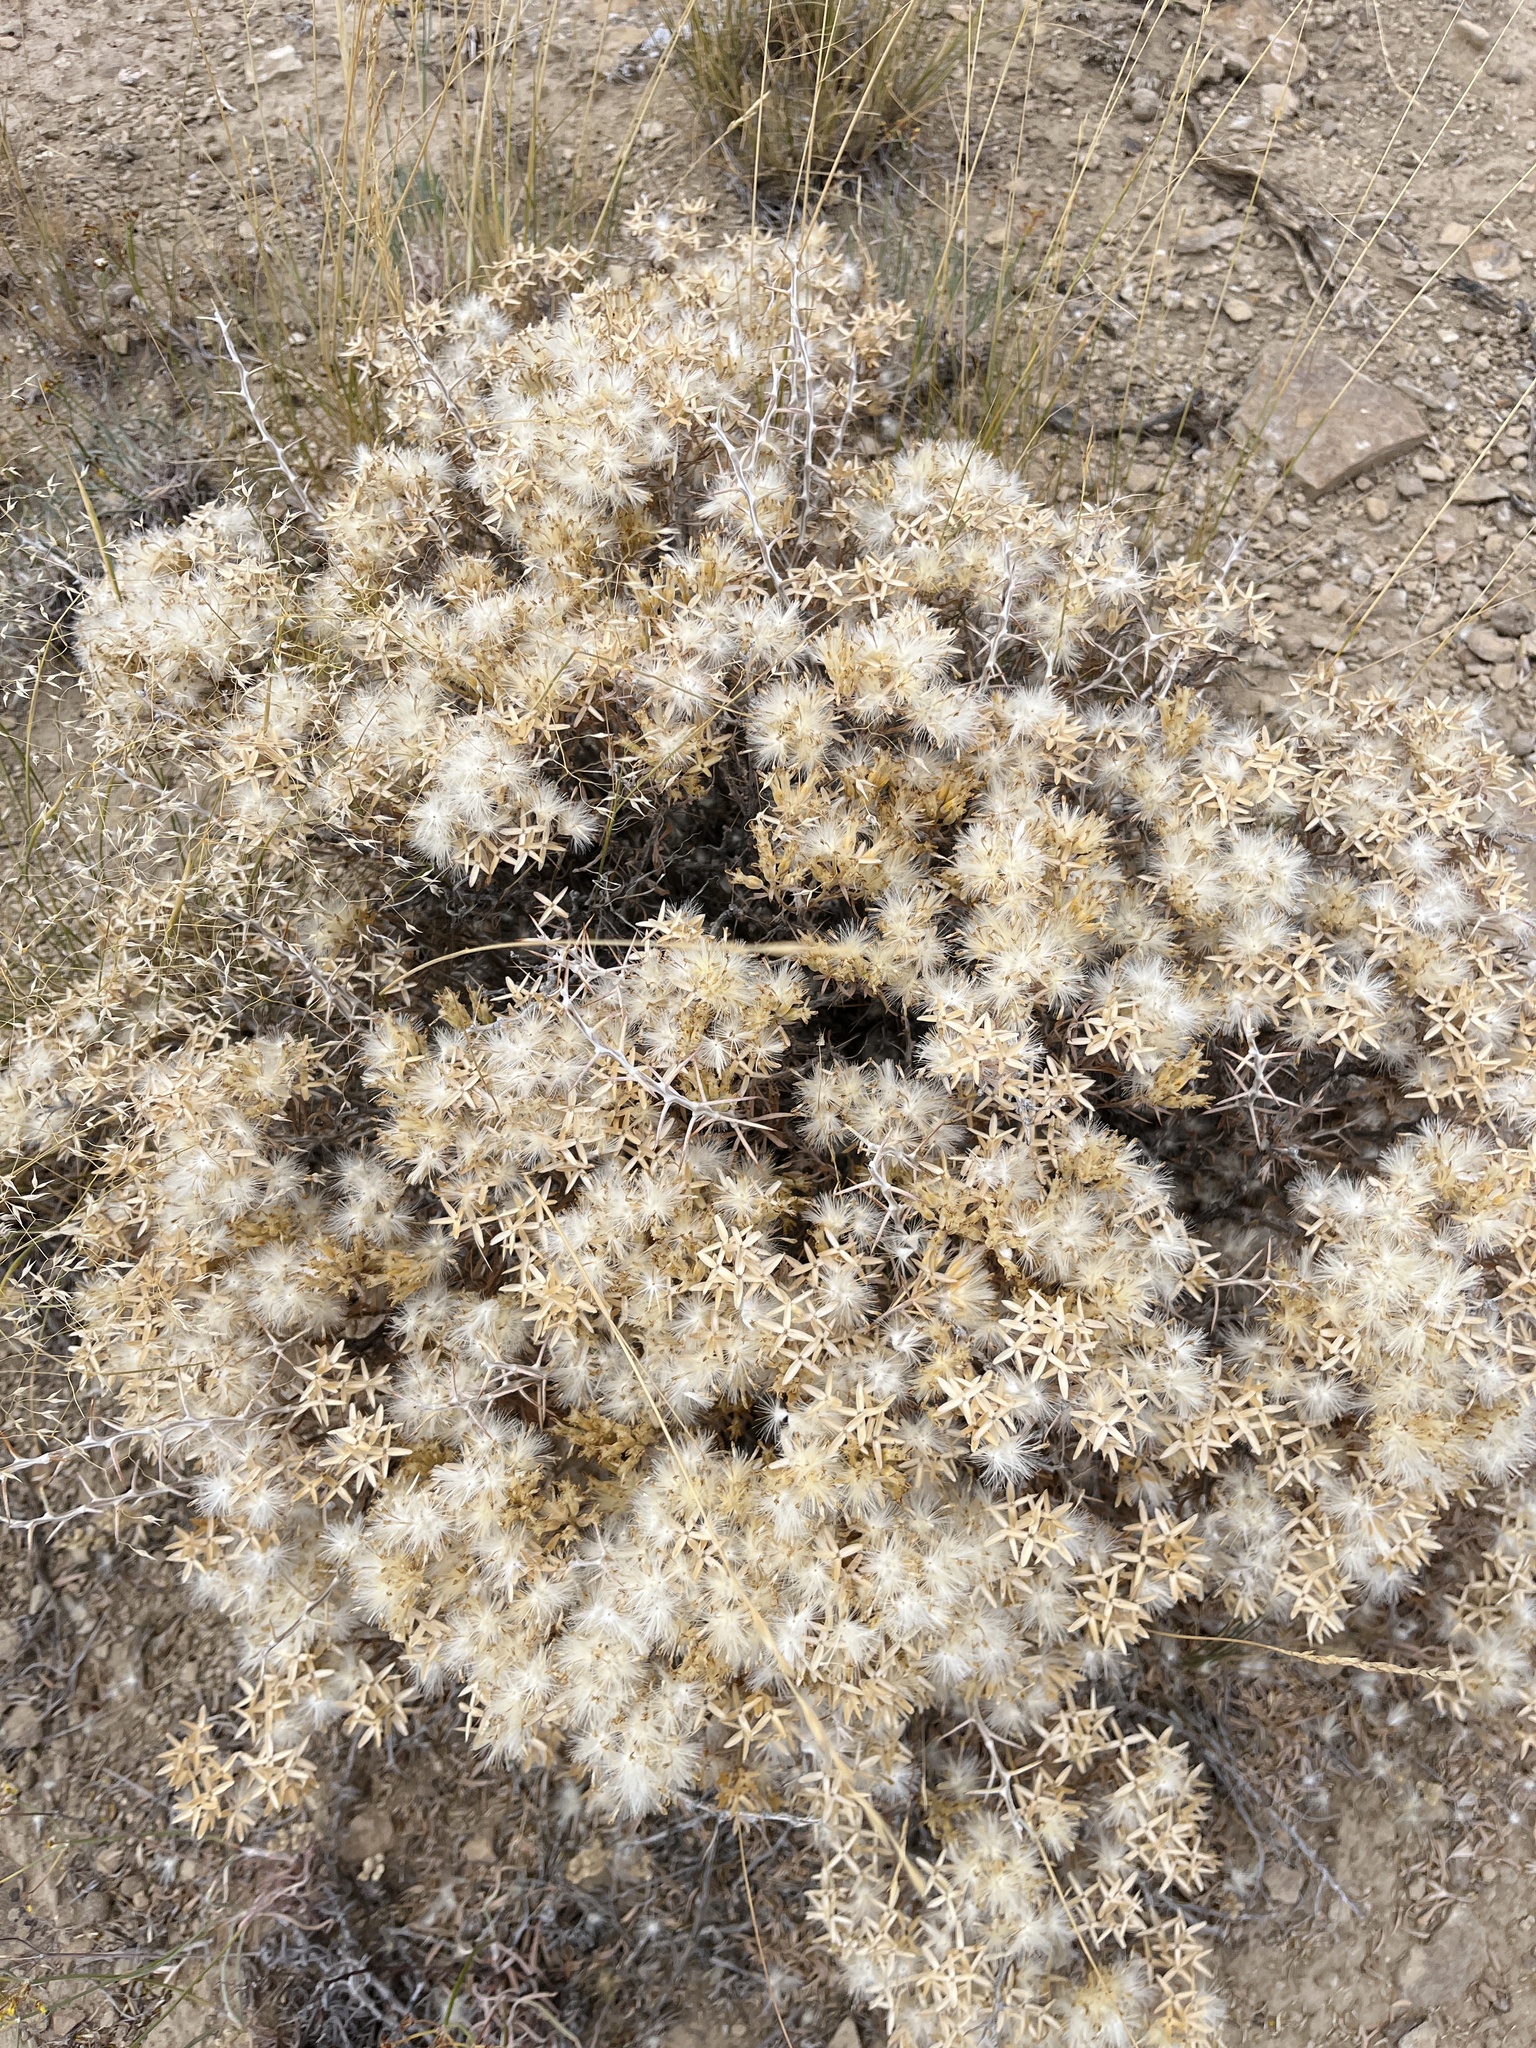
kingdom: Plantae
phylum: Tracheophyta
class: Magnoliopsida
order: Asterales
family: Asteraceae
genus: Tetradymia
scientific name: Tetradymia nuttallii
